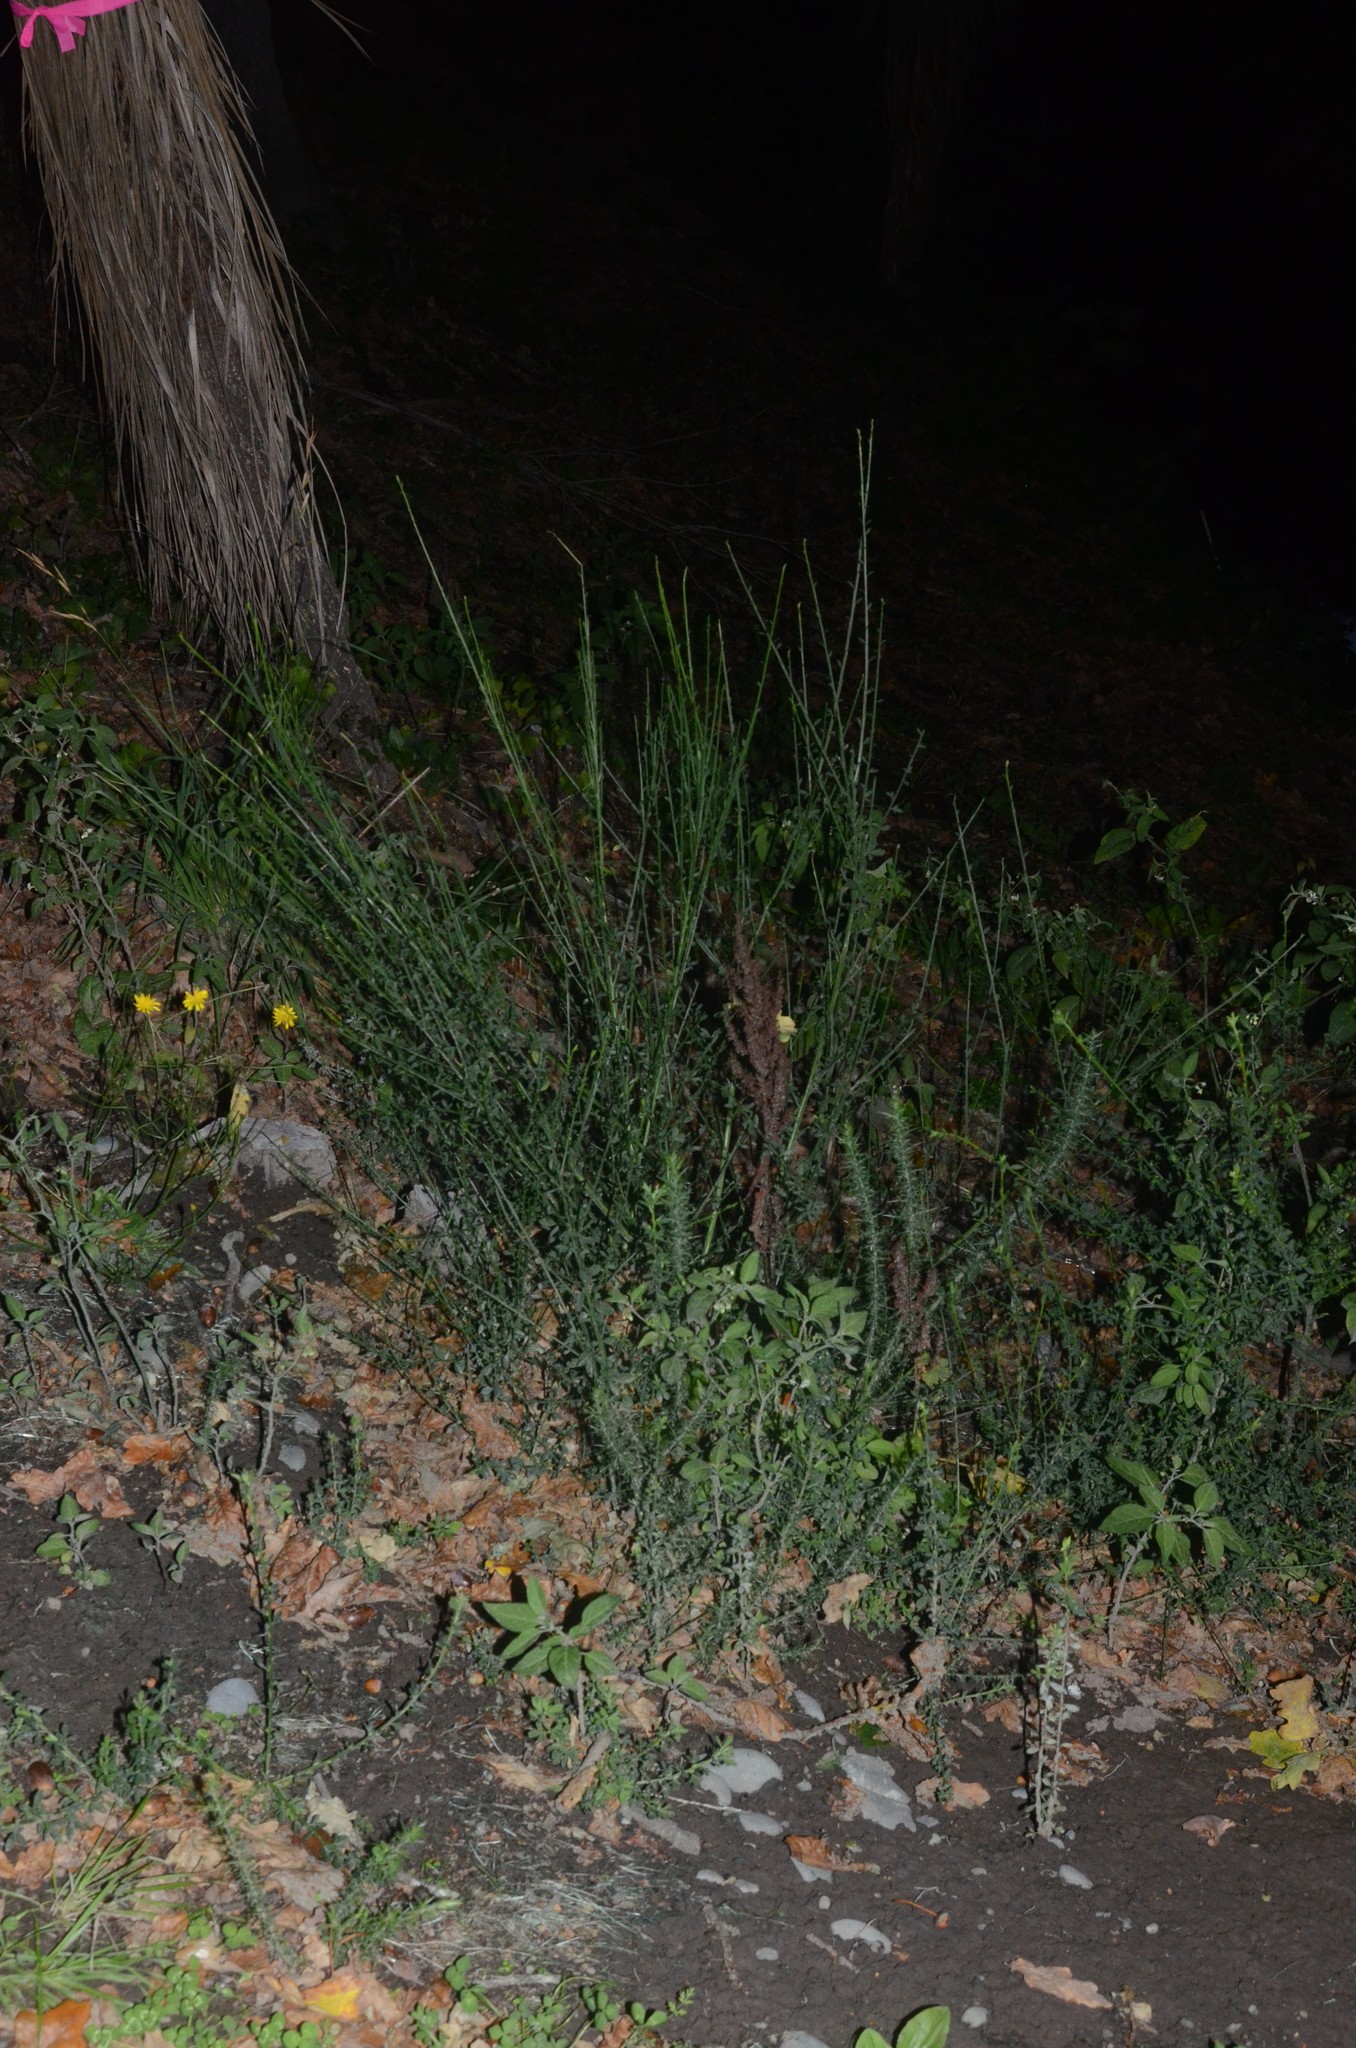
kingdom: Plantae
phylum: Tracheophyta
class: Magnoliopsida
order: Fabales
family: Fabaceae
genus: Cytisus
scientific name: Cytisus scoparius
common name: Scotch broom
